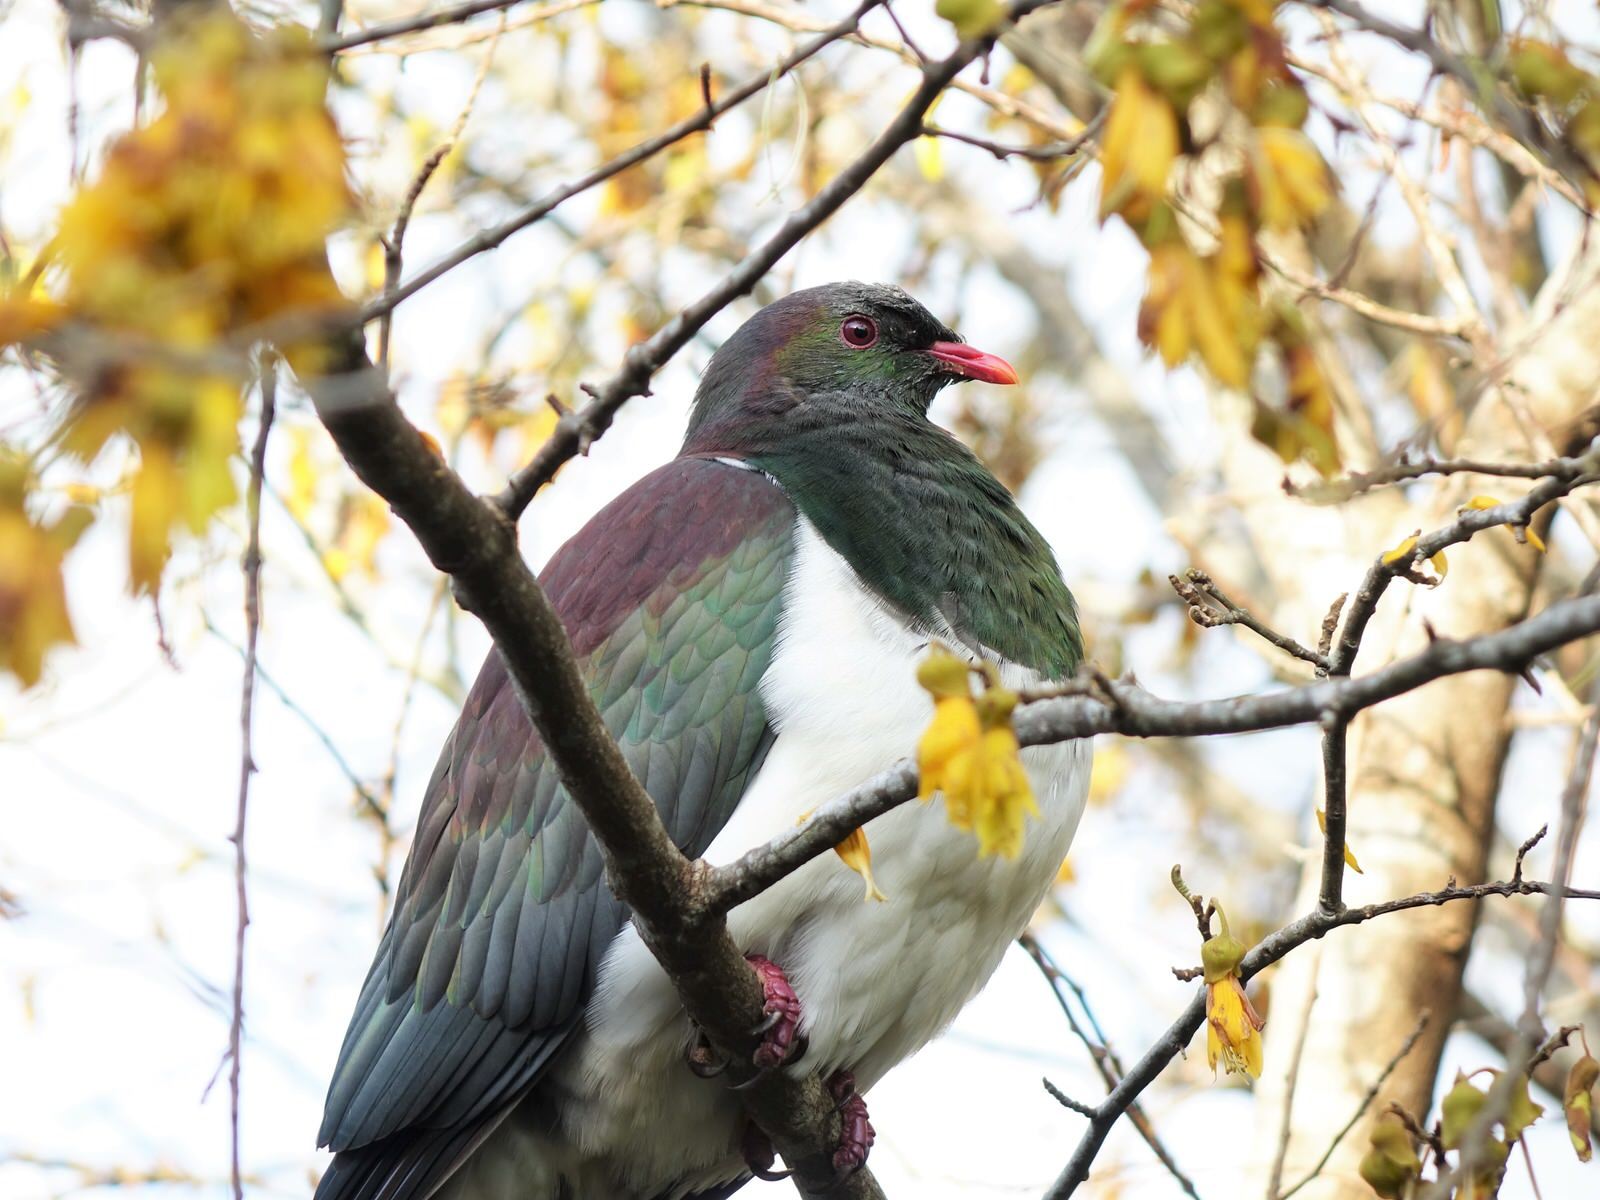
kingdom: Animalia
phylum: Chordata
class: Aves
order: Columbiformes
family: Columbidae
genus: Hemiphaga
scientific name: Hemiphaga novaeseelandiae
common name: New zealand pigeon
